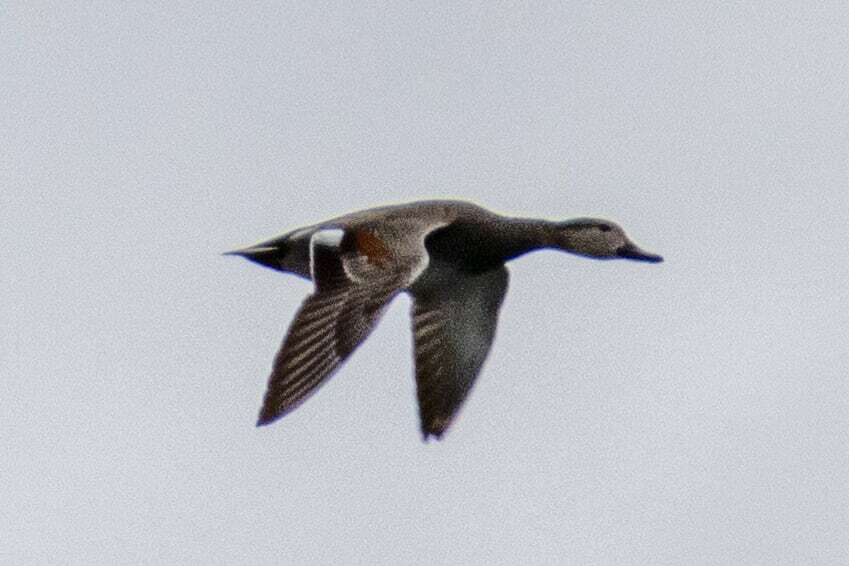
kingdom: Animalia
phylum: Chordata
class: Aves
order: Anseriformes
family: Anatidae
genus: Mareca
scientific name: Mareca strepera
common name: Gadwall
